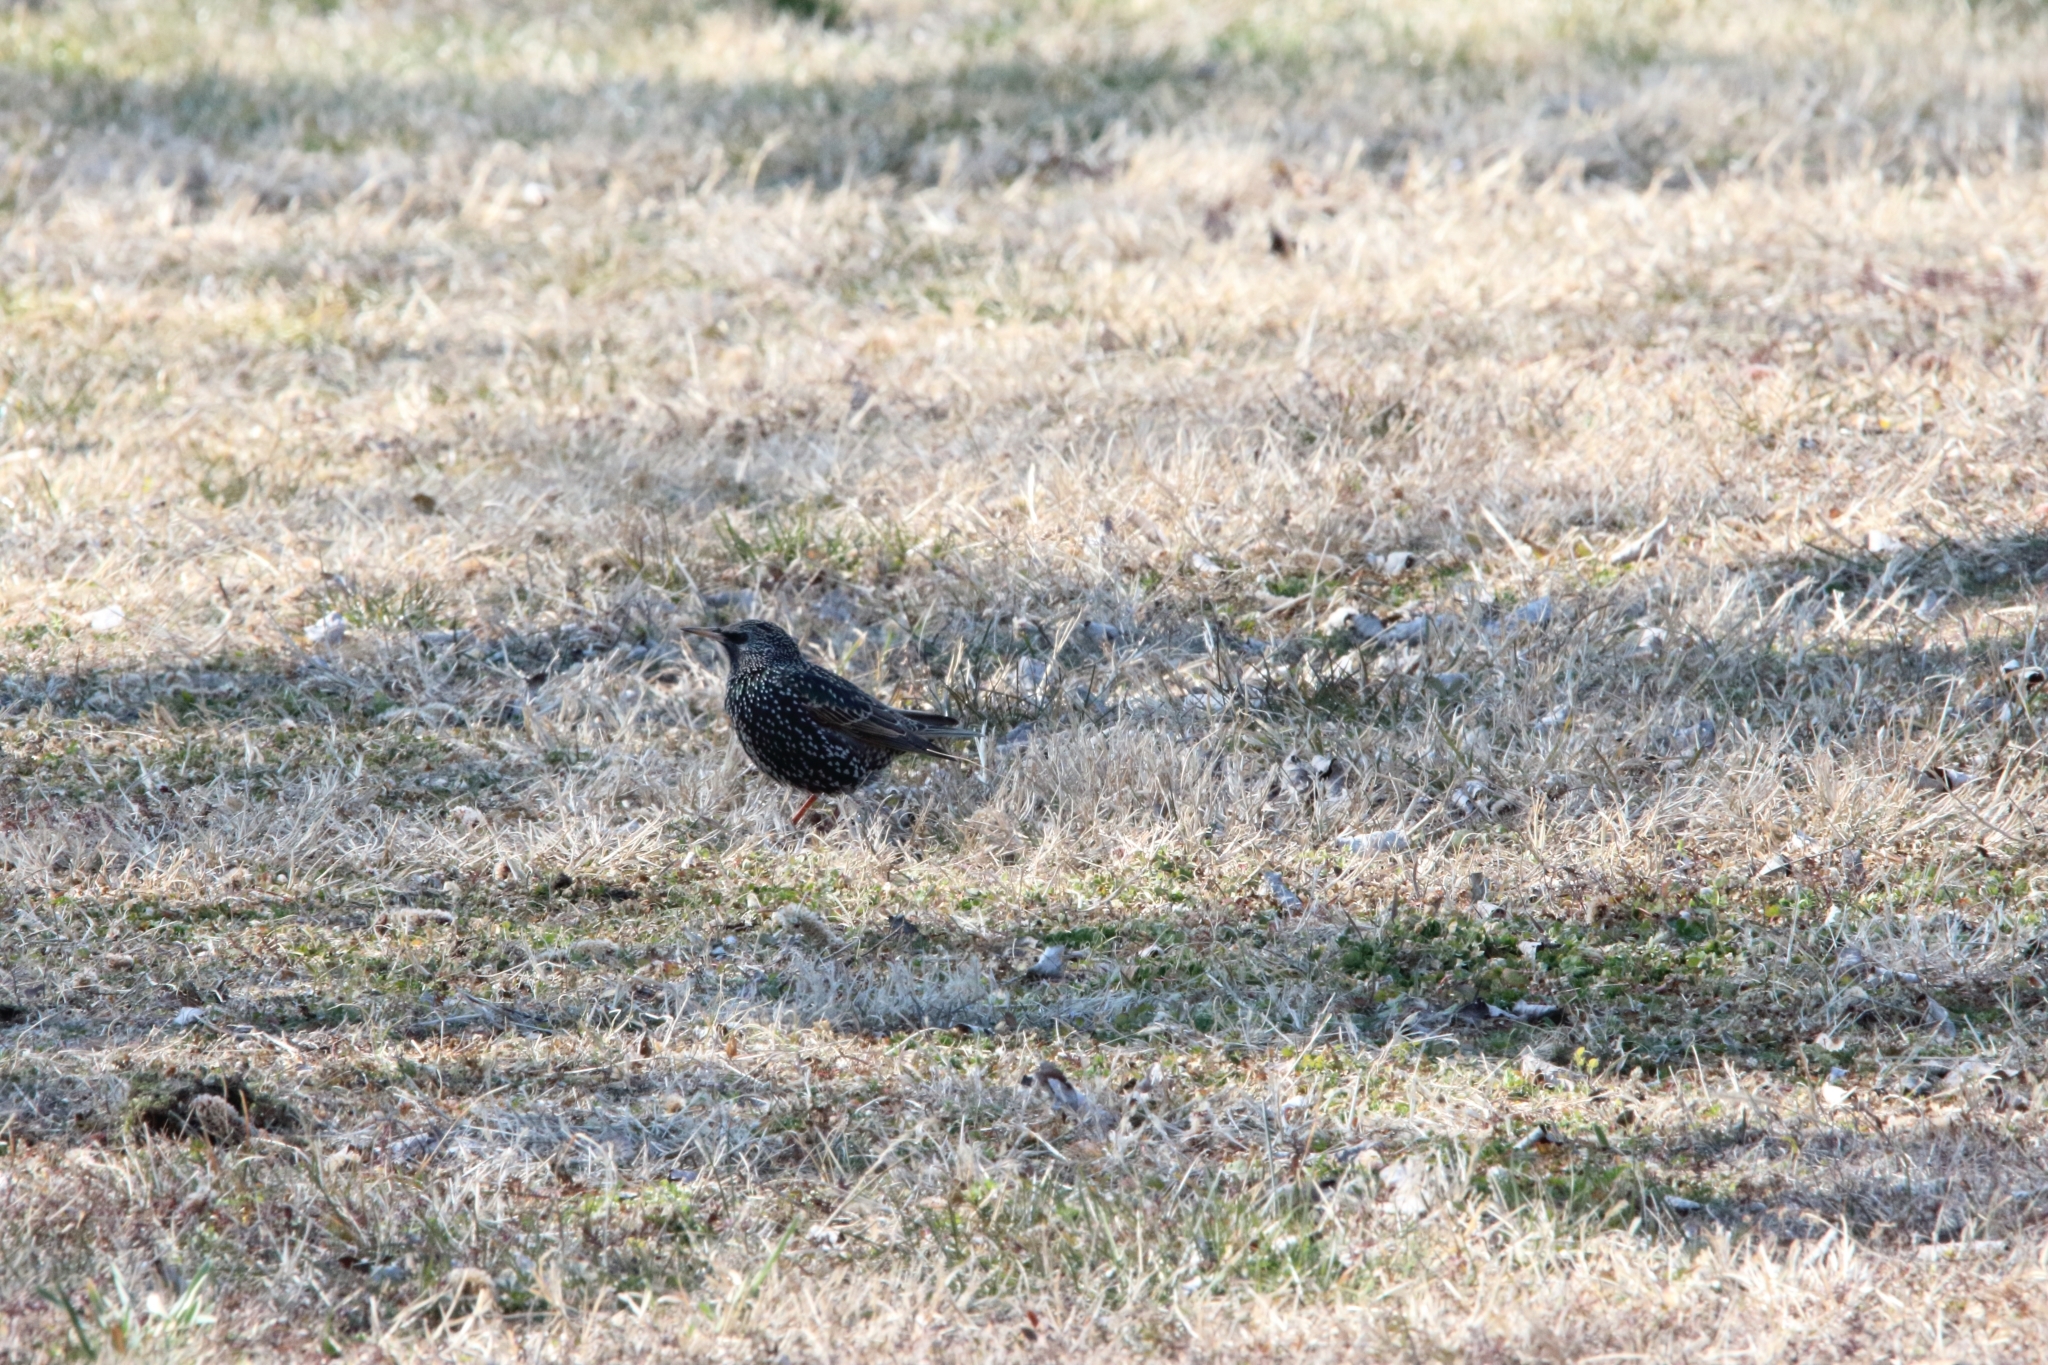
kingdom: Animalia
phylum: Chordata
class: Aves
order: Passeriformes
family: Sturnidae
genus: Sturnus
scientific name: Sturnus vulgaris
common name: Common starling
